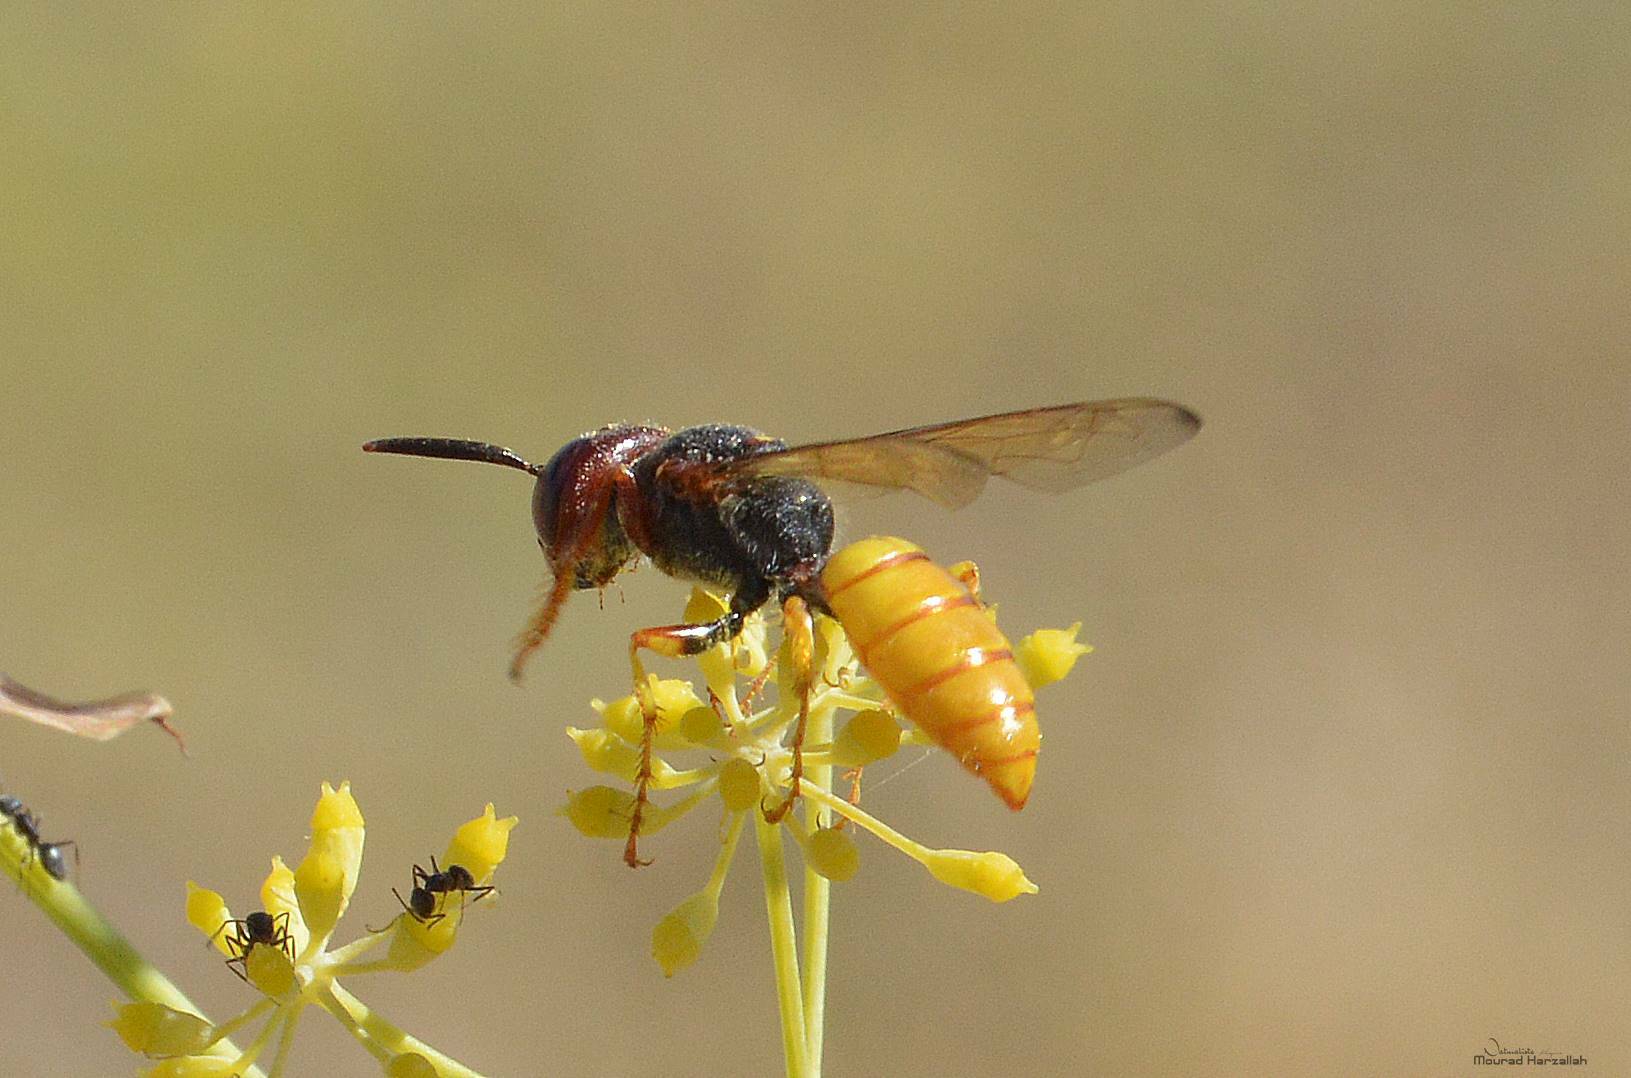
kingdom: Animalia
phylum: Arthropoda
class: Insecta
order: Hymenoptera
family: Crabronidae
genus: Philanthus
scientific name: Philanthus triangulum
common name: Bee wolf
